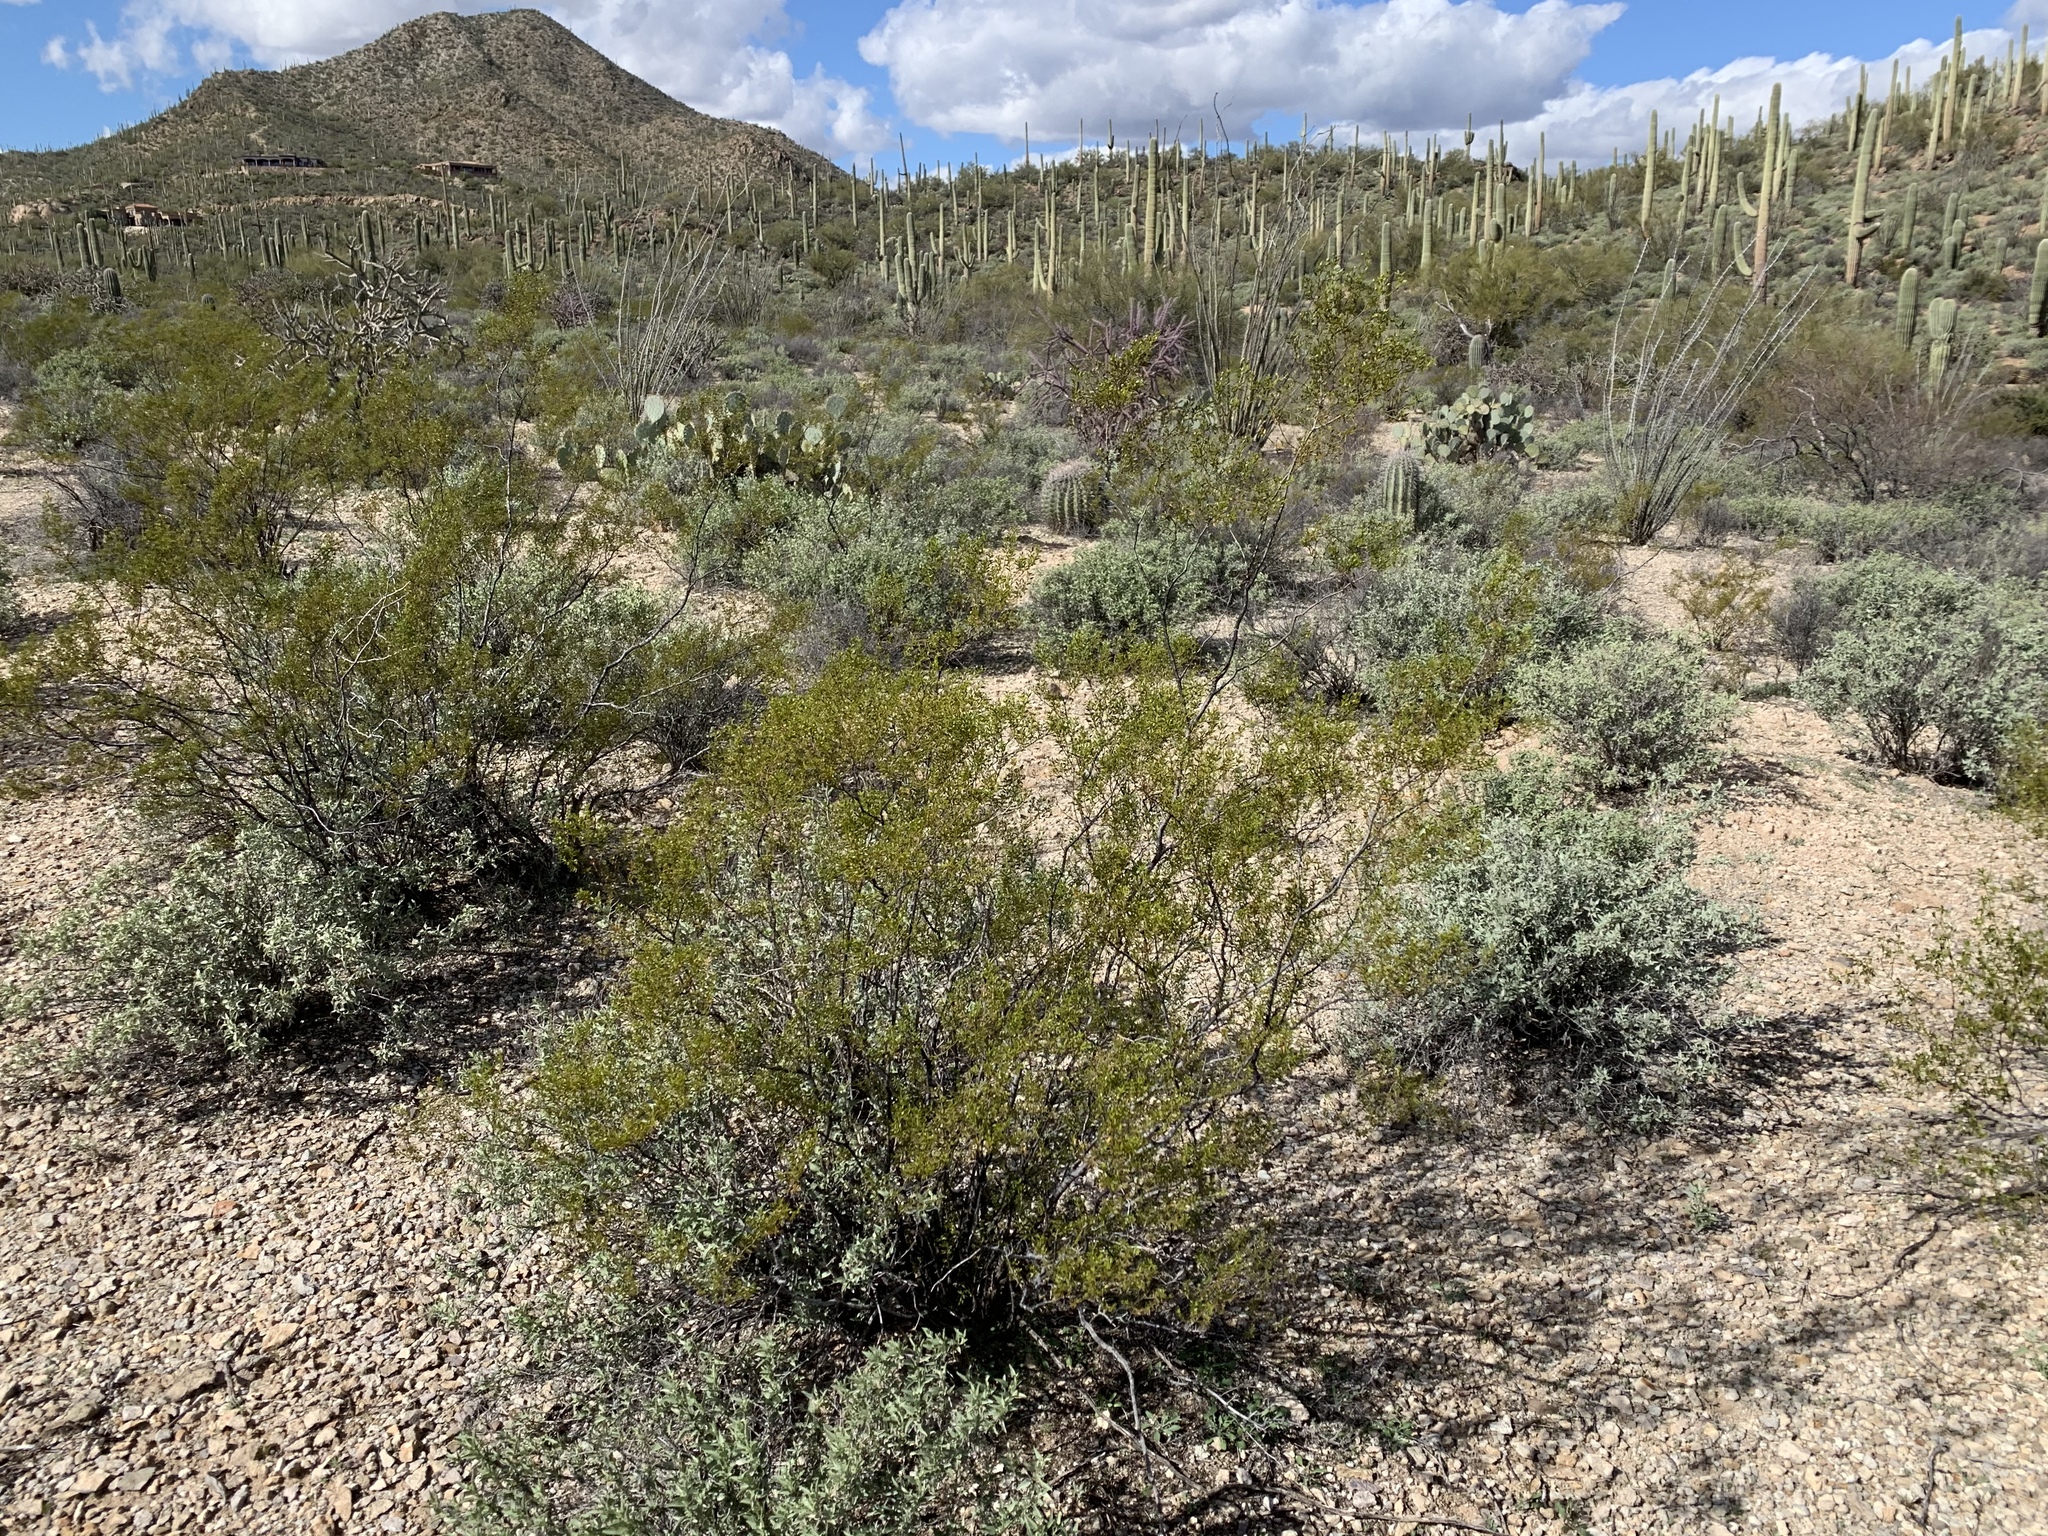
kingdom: Plantae
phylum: Tracheophyta
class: Magnoliopsida
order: Zygophyllales
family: Zygophyllaceae
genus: Larrea
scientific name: Larrea tridentata
